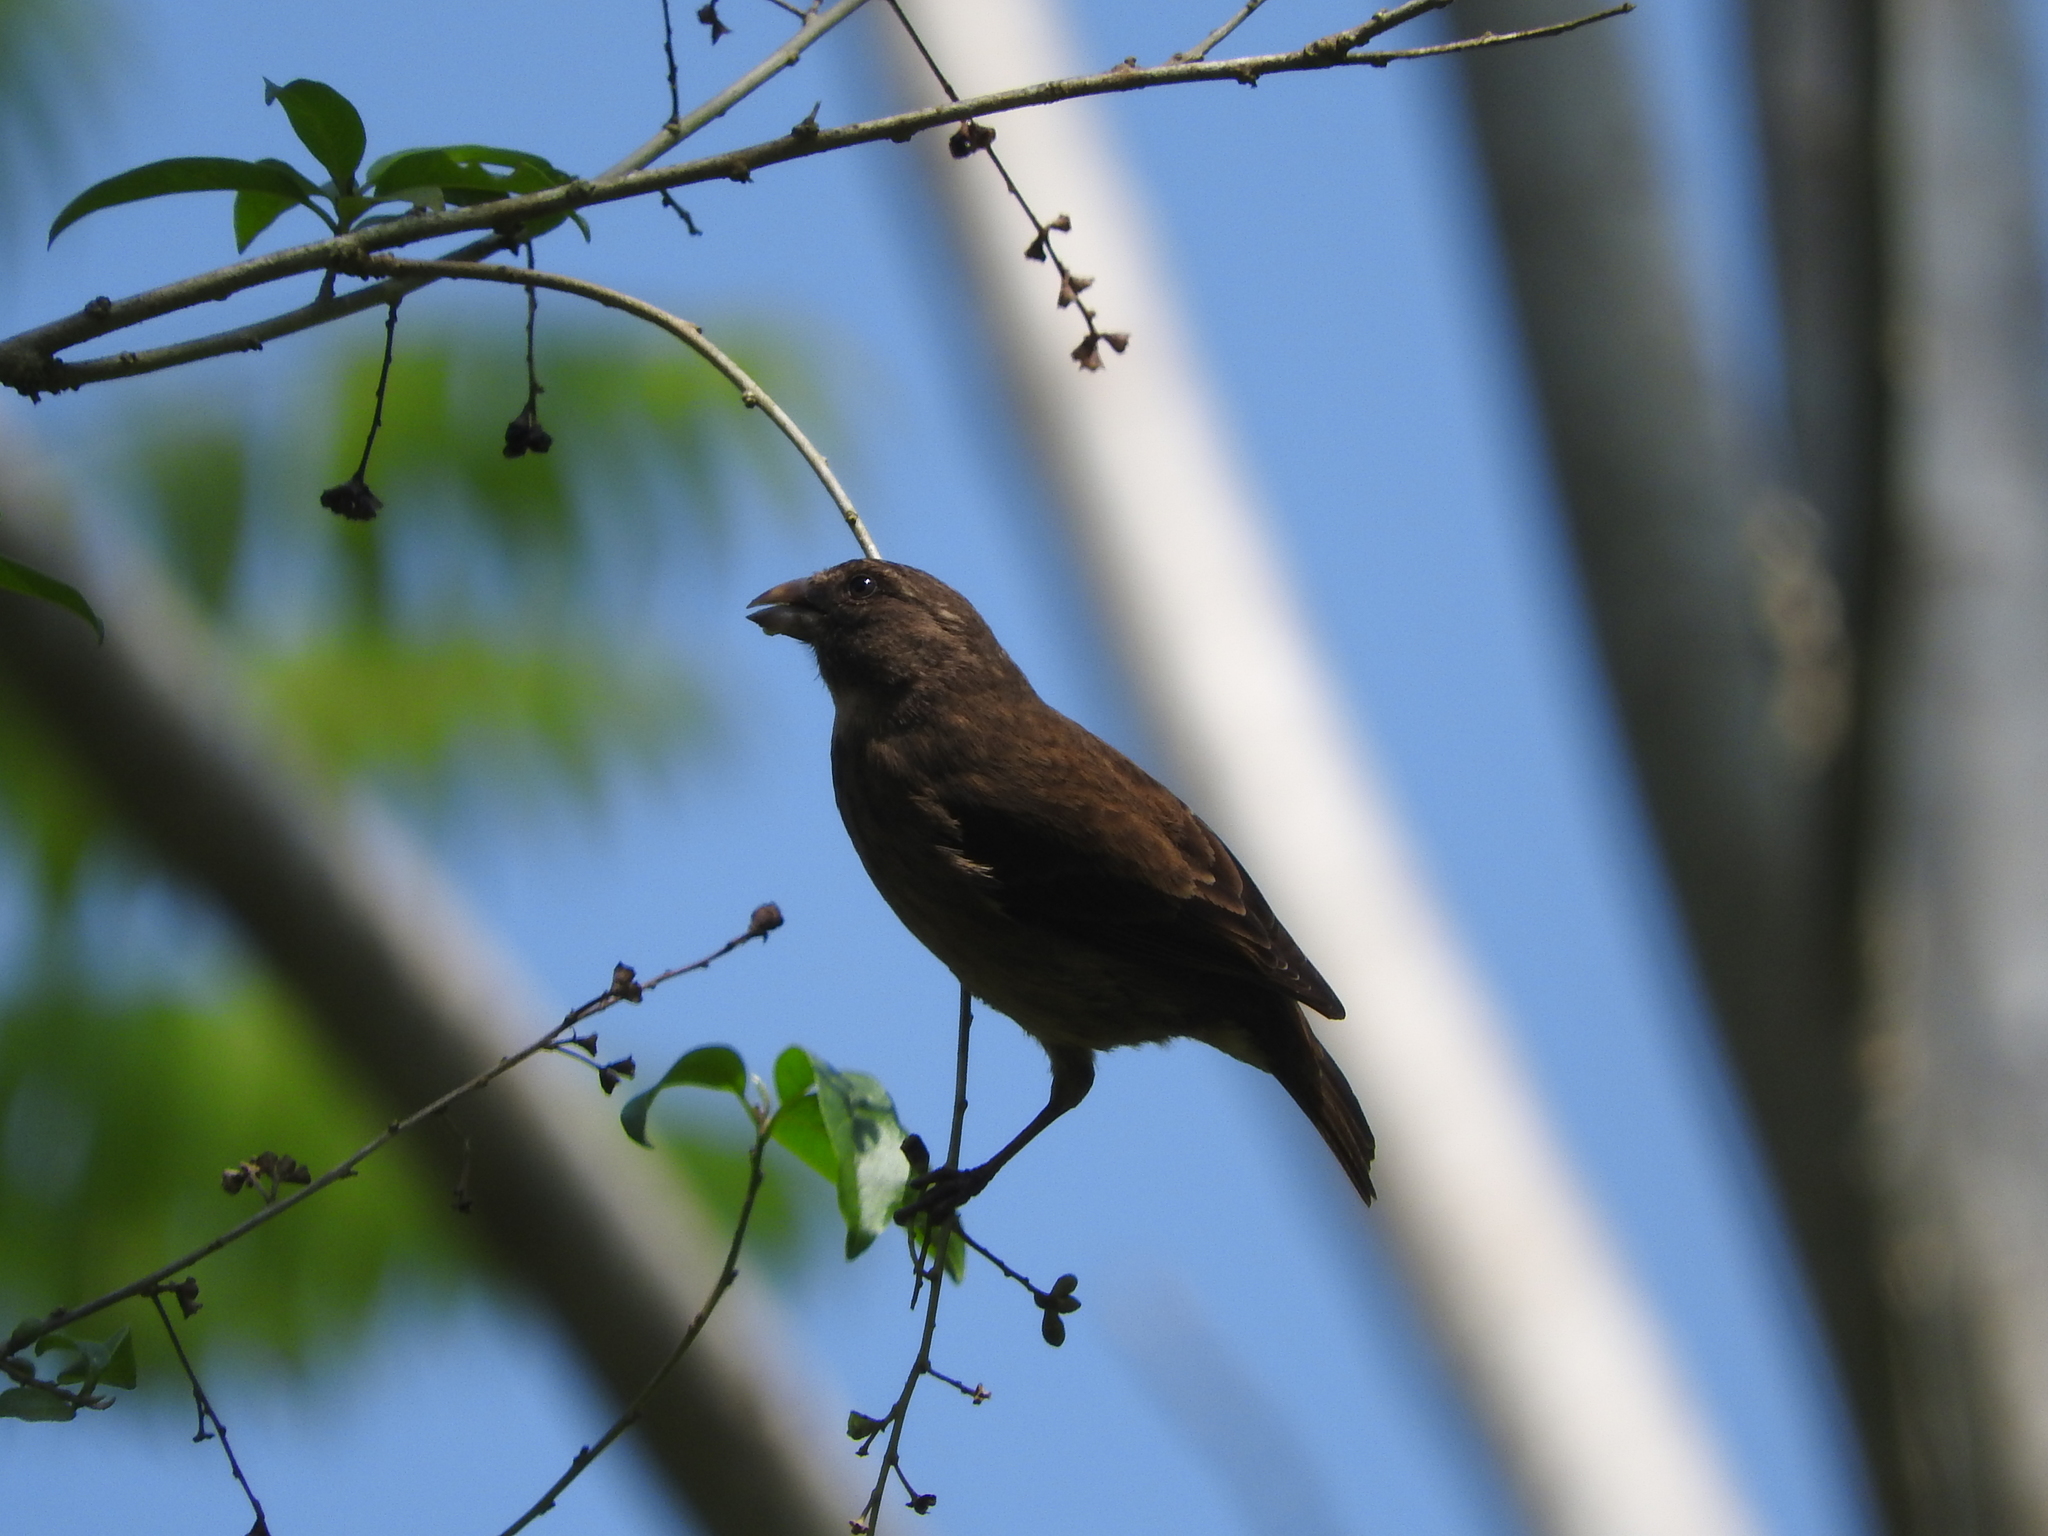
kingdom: Animalia
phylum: Chordata
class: Aves
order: Passeriformes
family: Fringillidae
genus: Crithagra
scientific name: Crithagra rufobrunnea
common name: Principe seedeater
